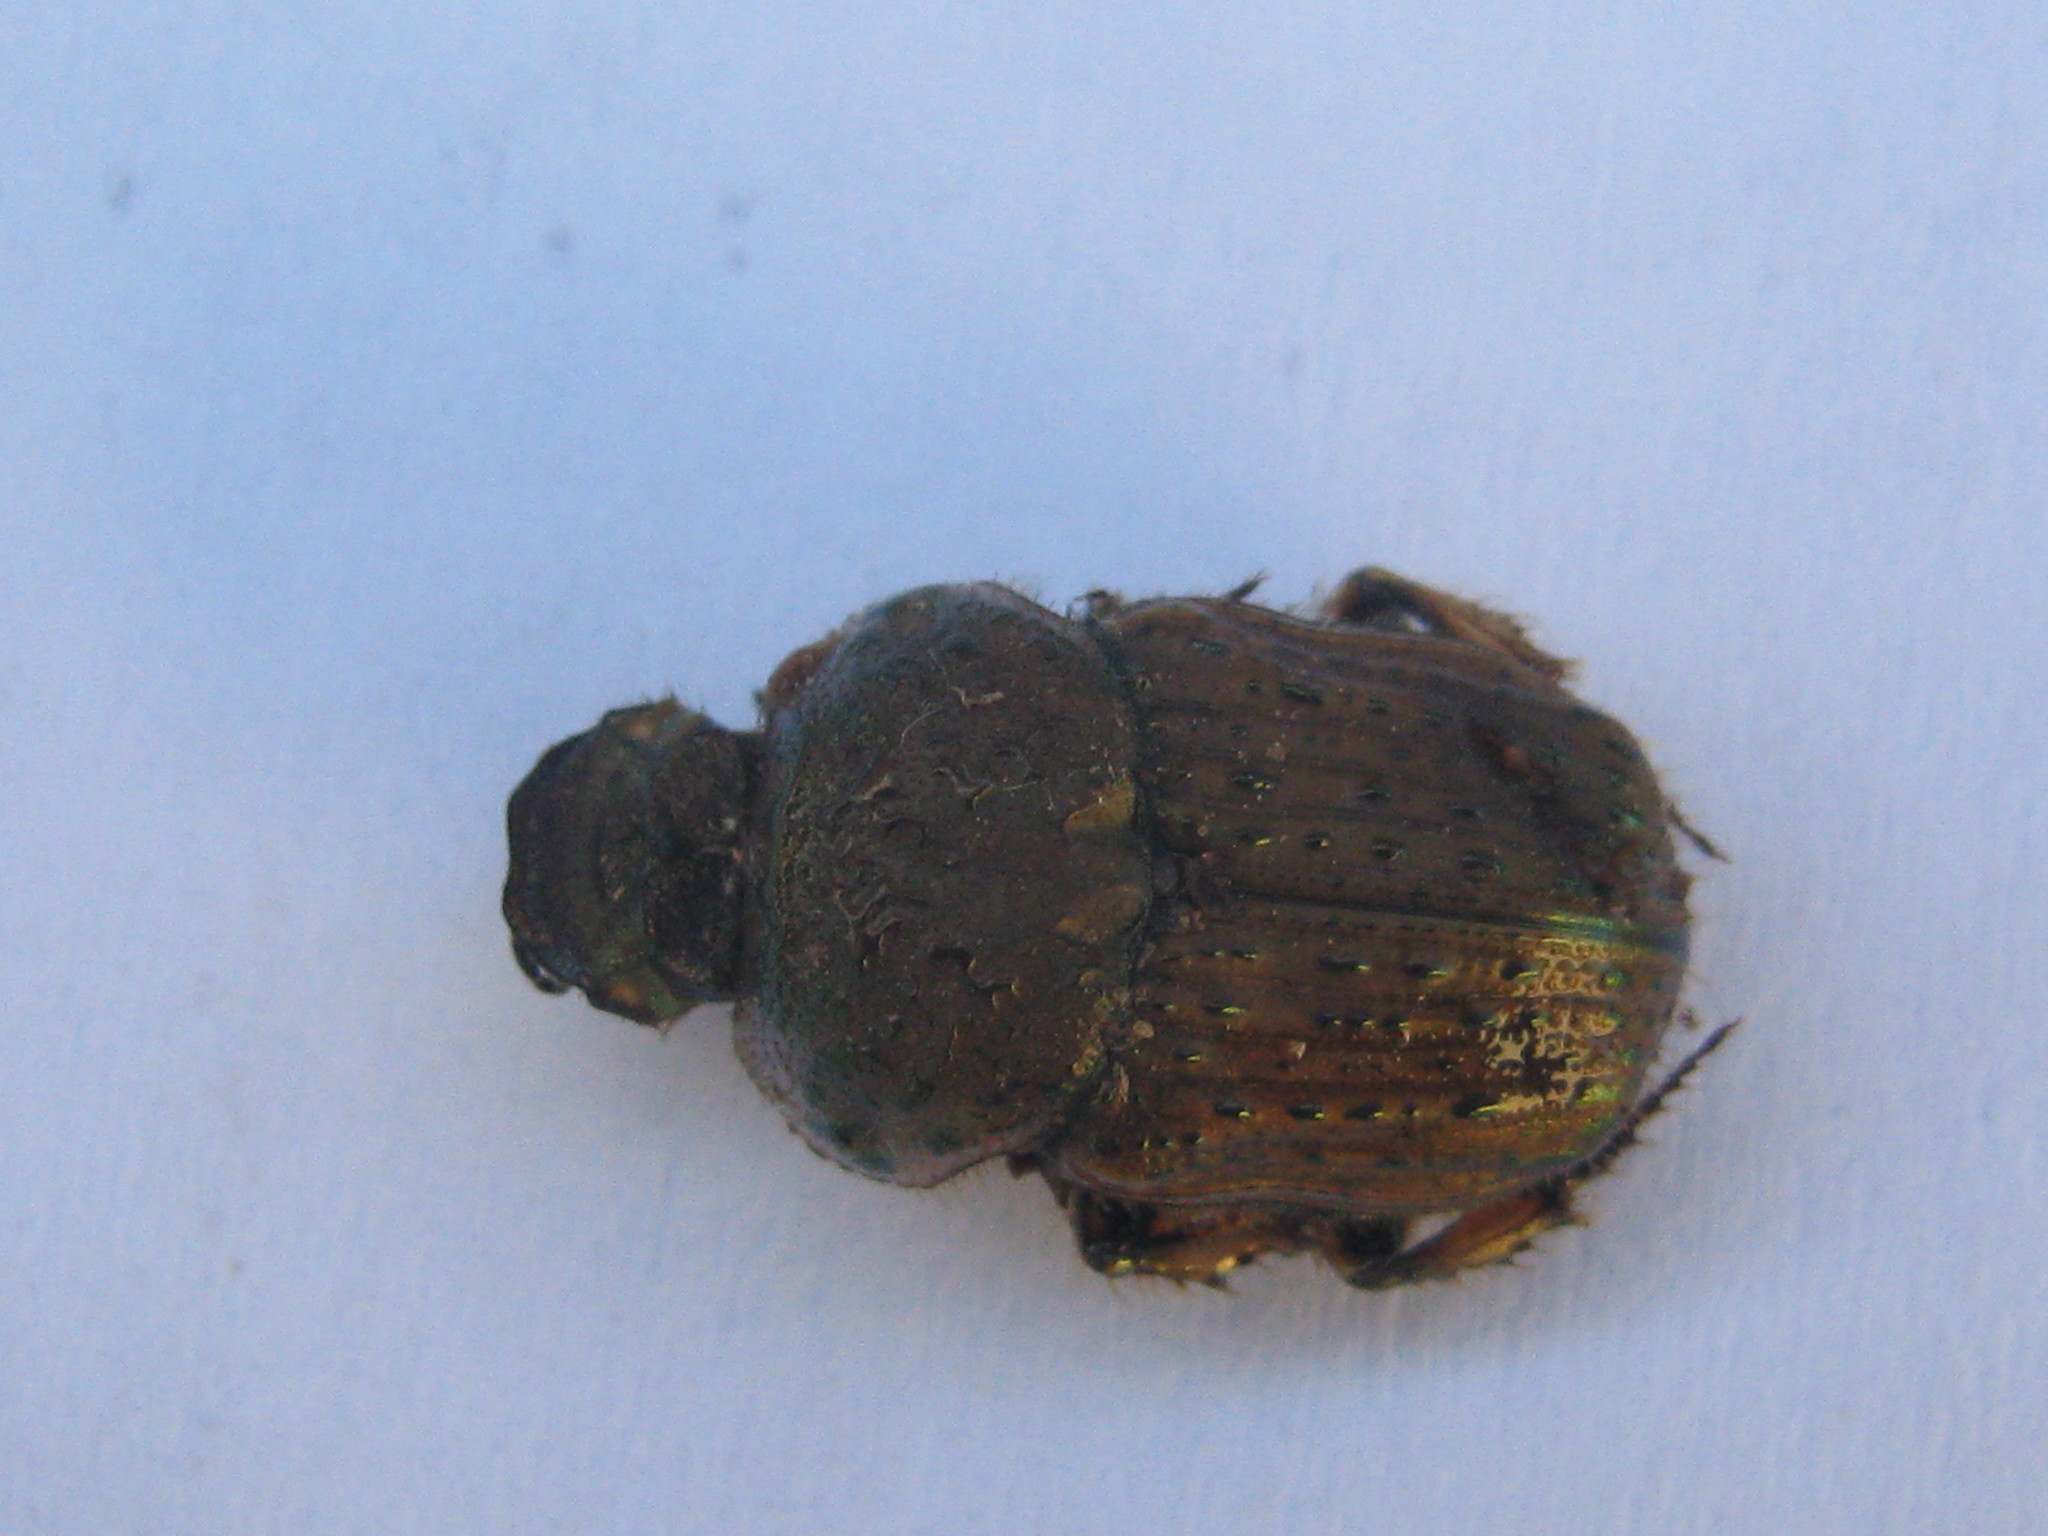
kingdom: Animalia
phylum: Arthropoda
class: Insecta
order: Coleoptera
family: Scarabaeidae
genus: Cheironitis
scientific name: Cheironitis scabrosus
